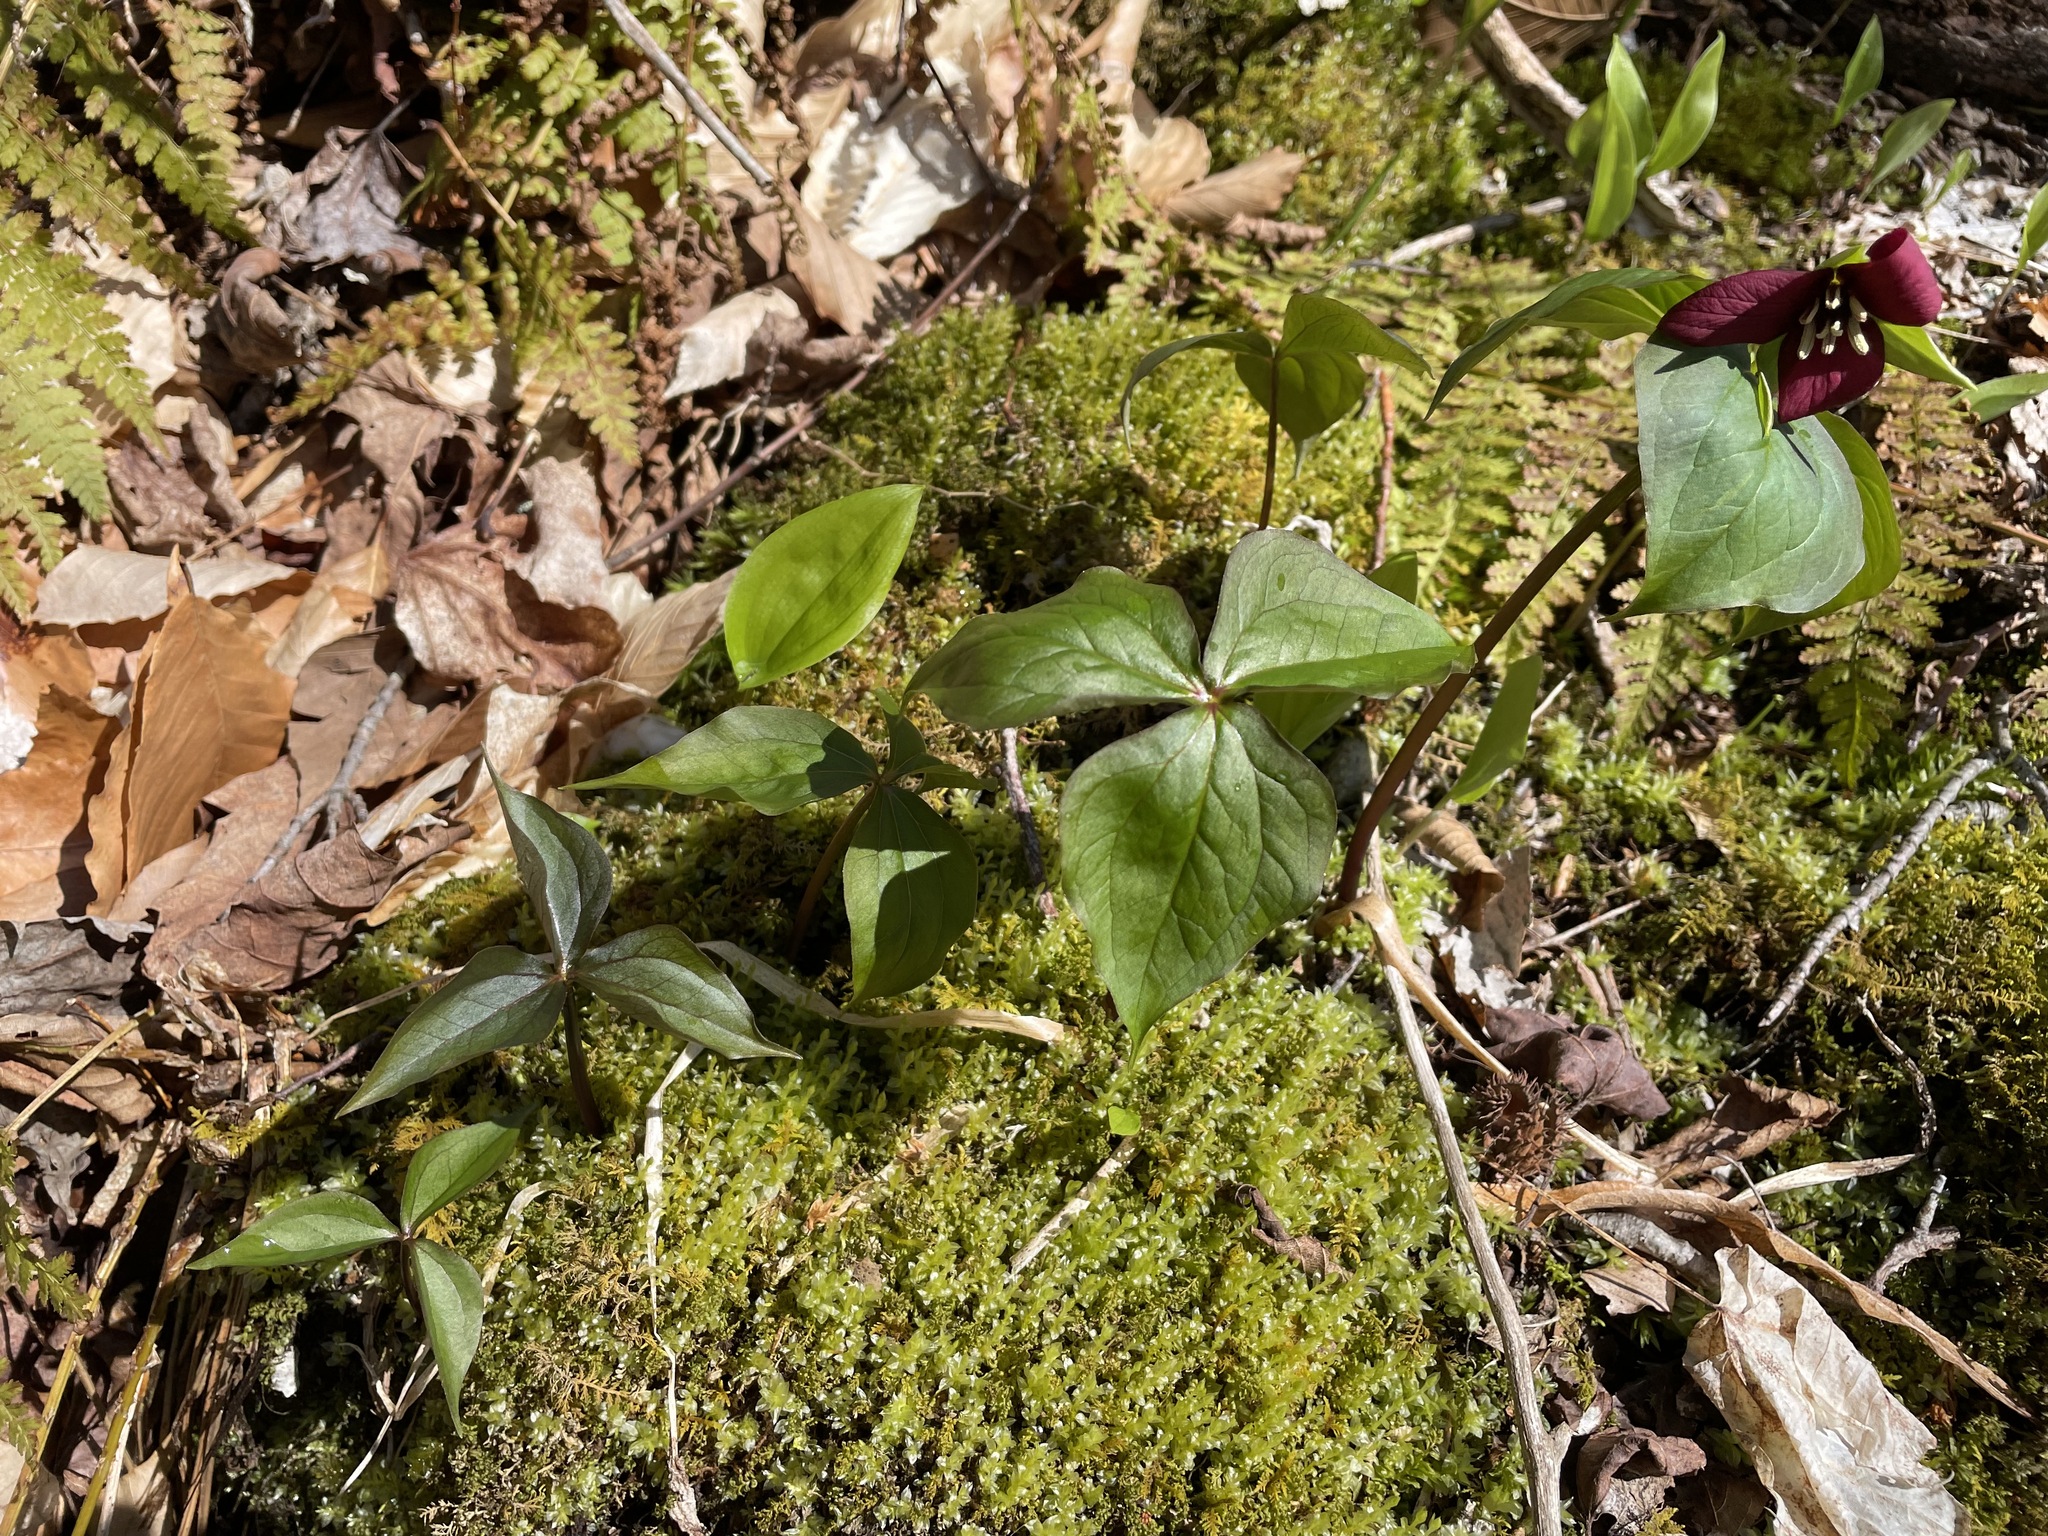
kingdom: Plantae
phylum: Tracheophyta
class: Liliopsida
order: Liliales
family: Melanthiaceae
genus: Trillium
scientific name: Trillium erectum
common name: Purple trillium
